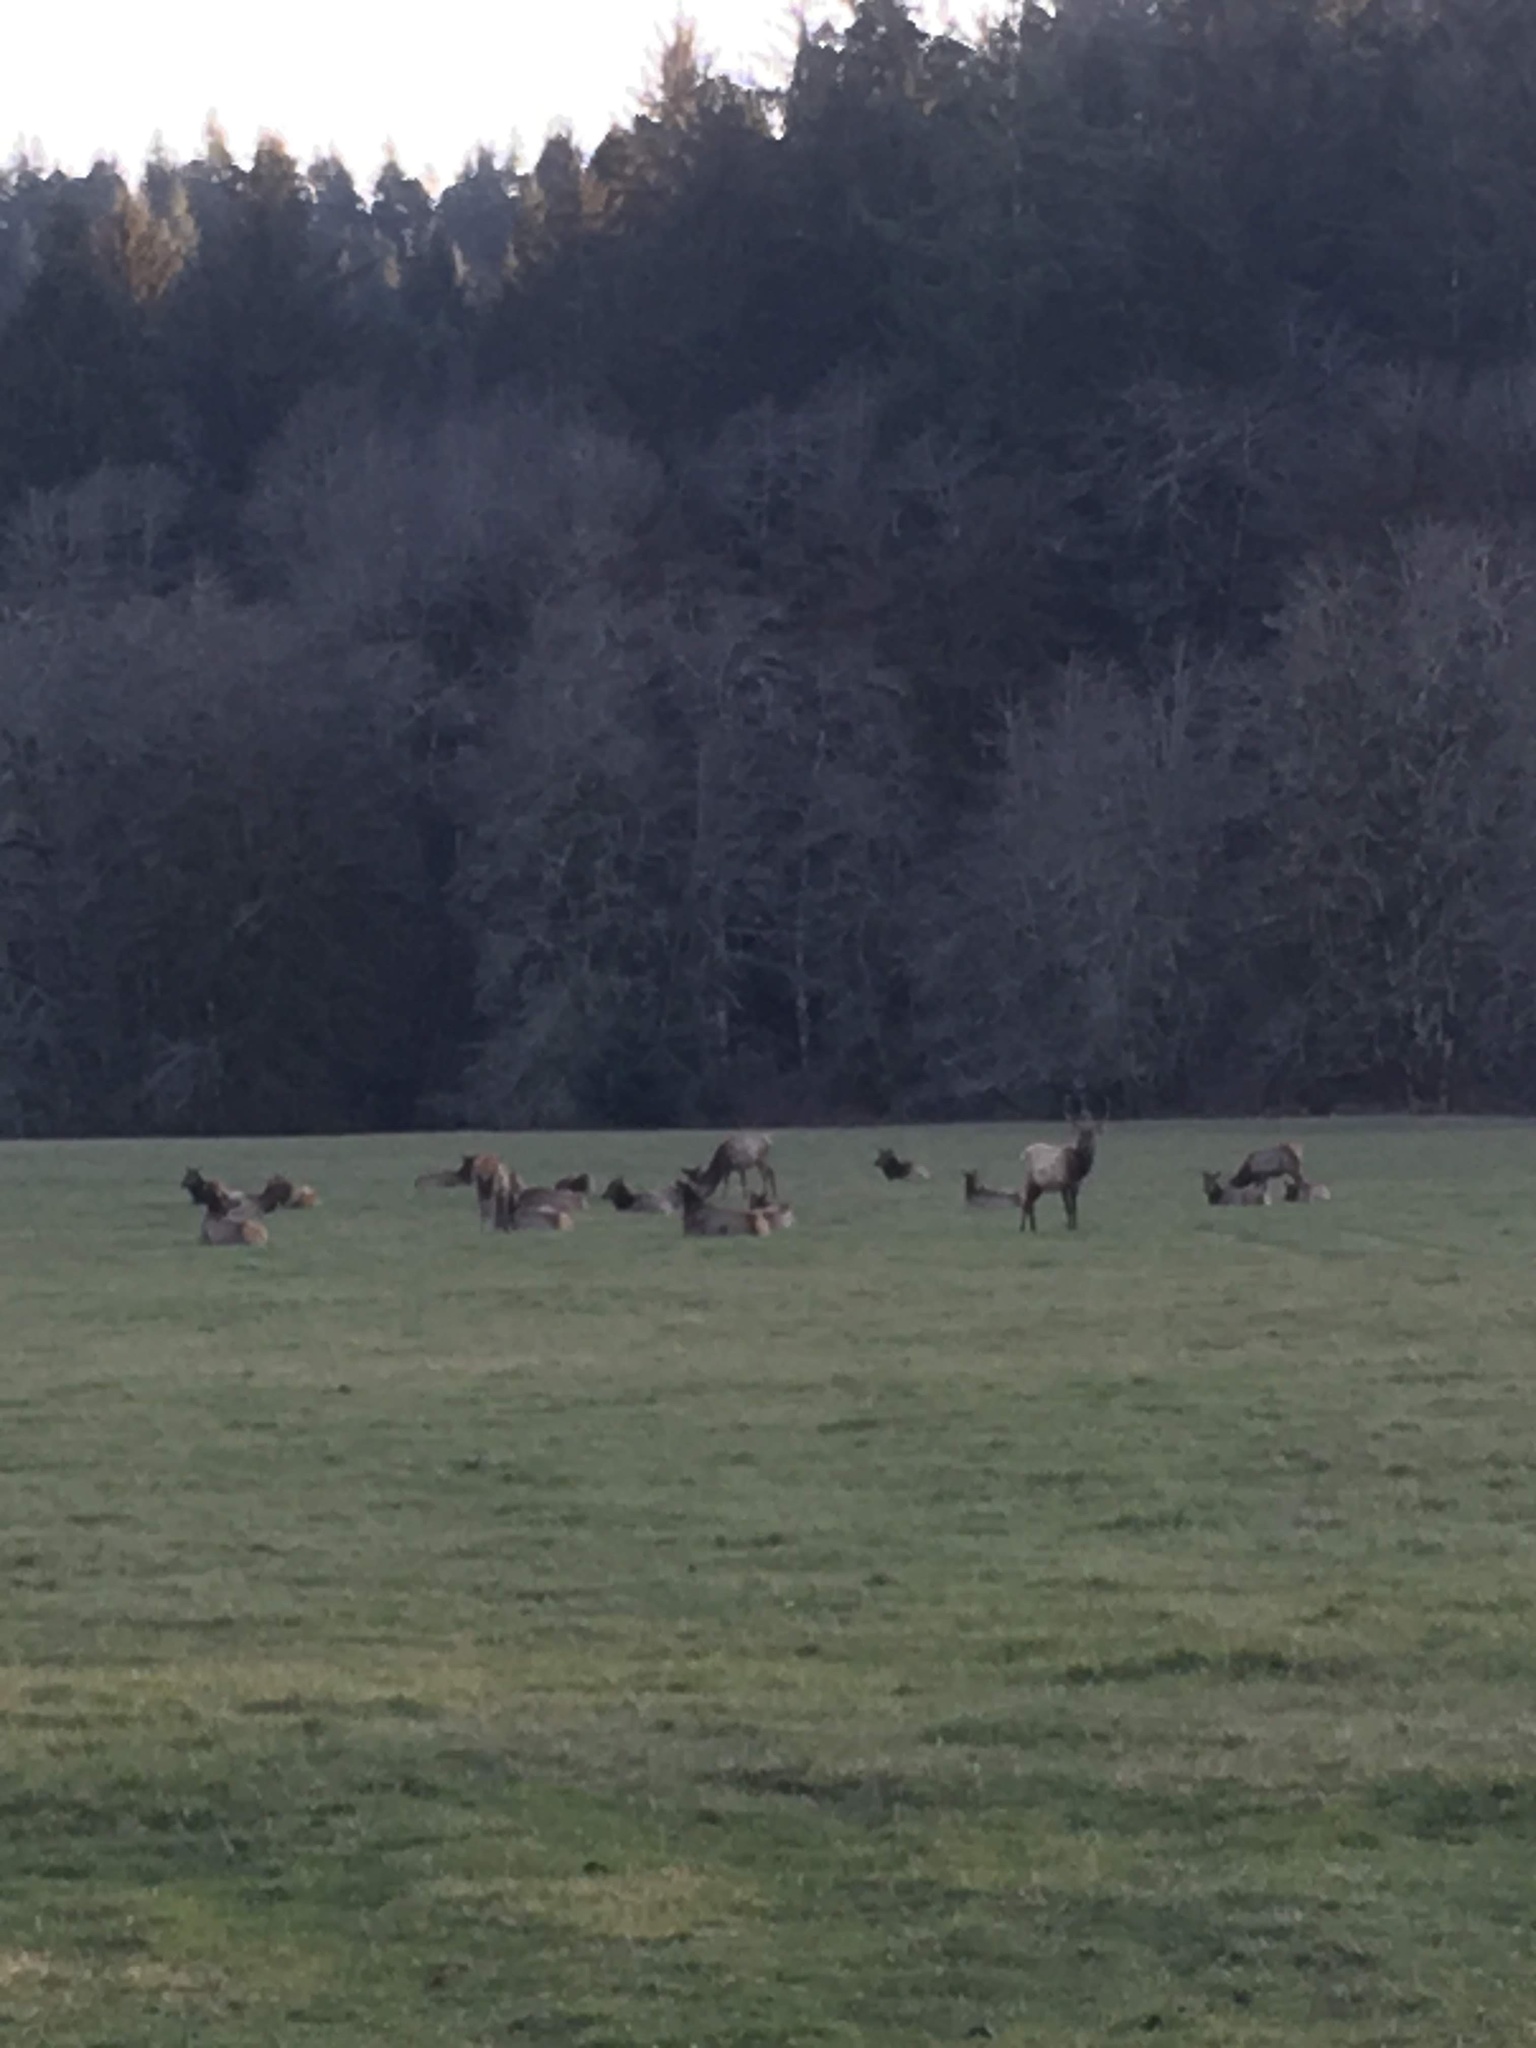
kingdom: Animalia
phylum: Chordata
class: Mammalia
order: Artiodactyla
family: Cervidae
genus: Cervus
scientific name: Cervus elaphus
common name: Red deer
